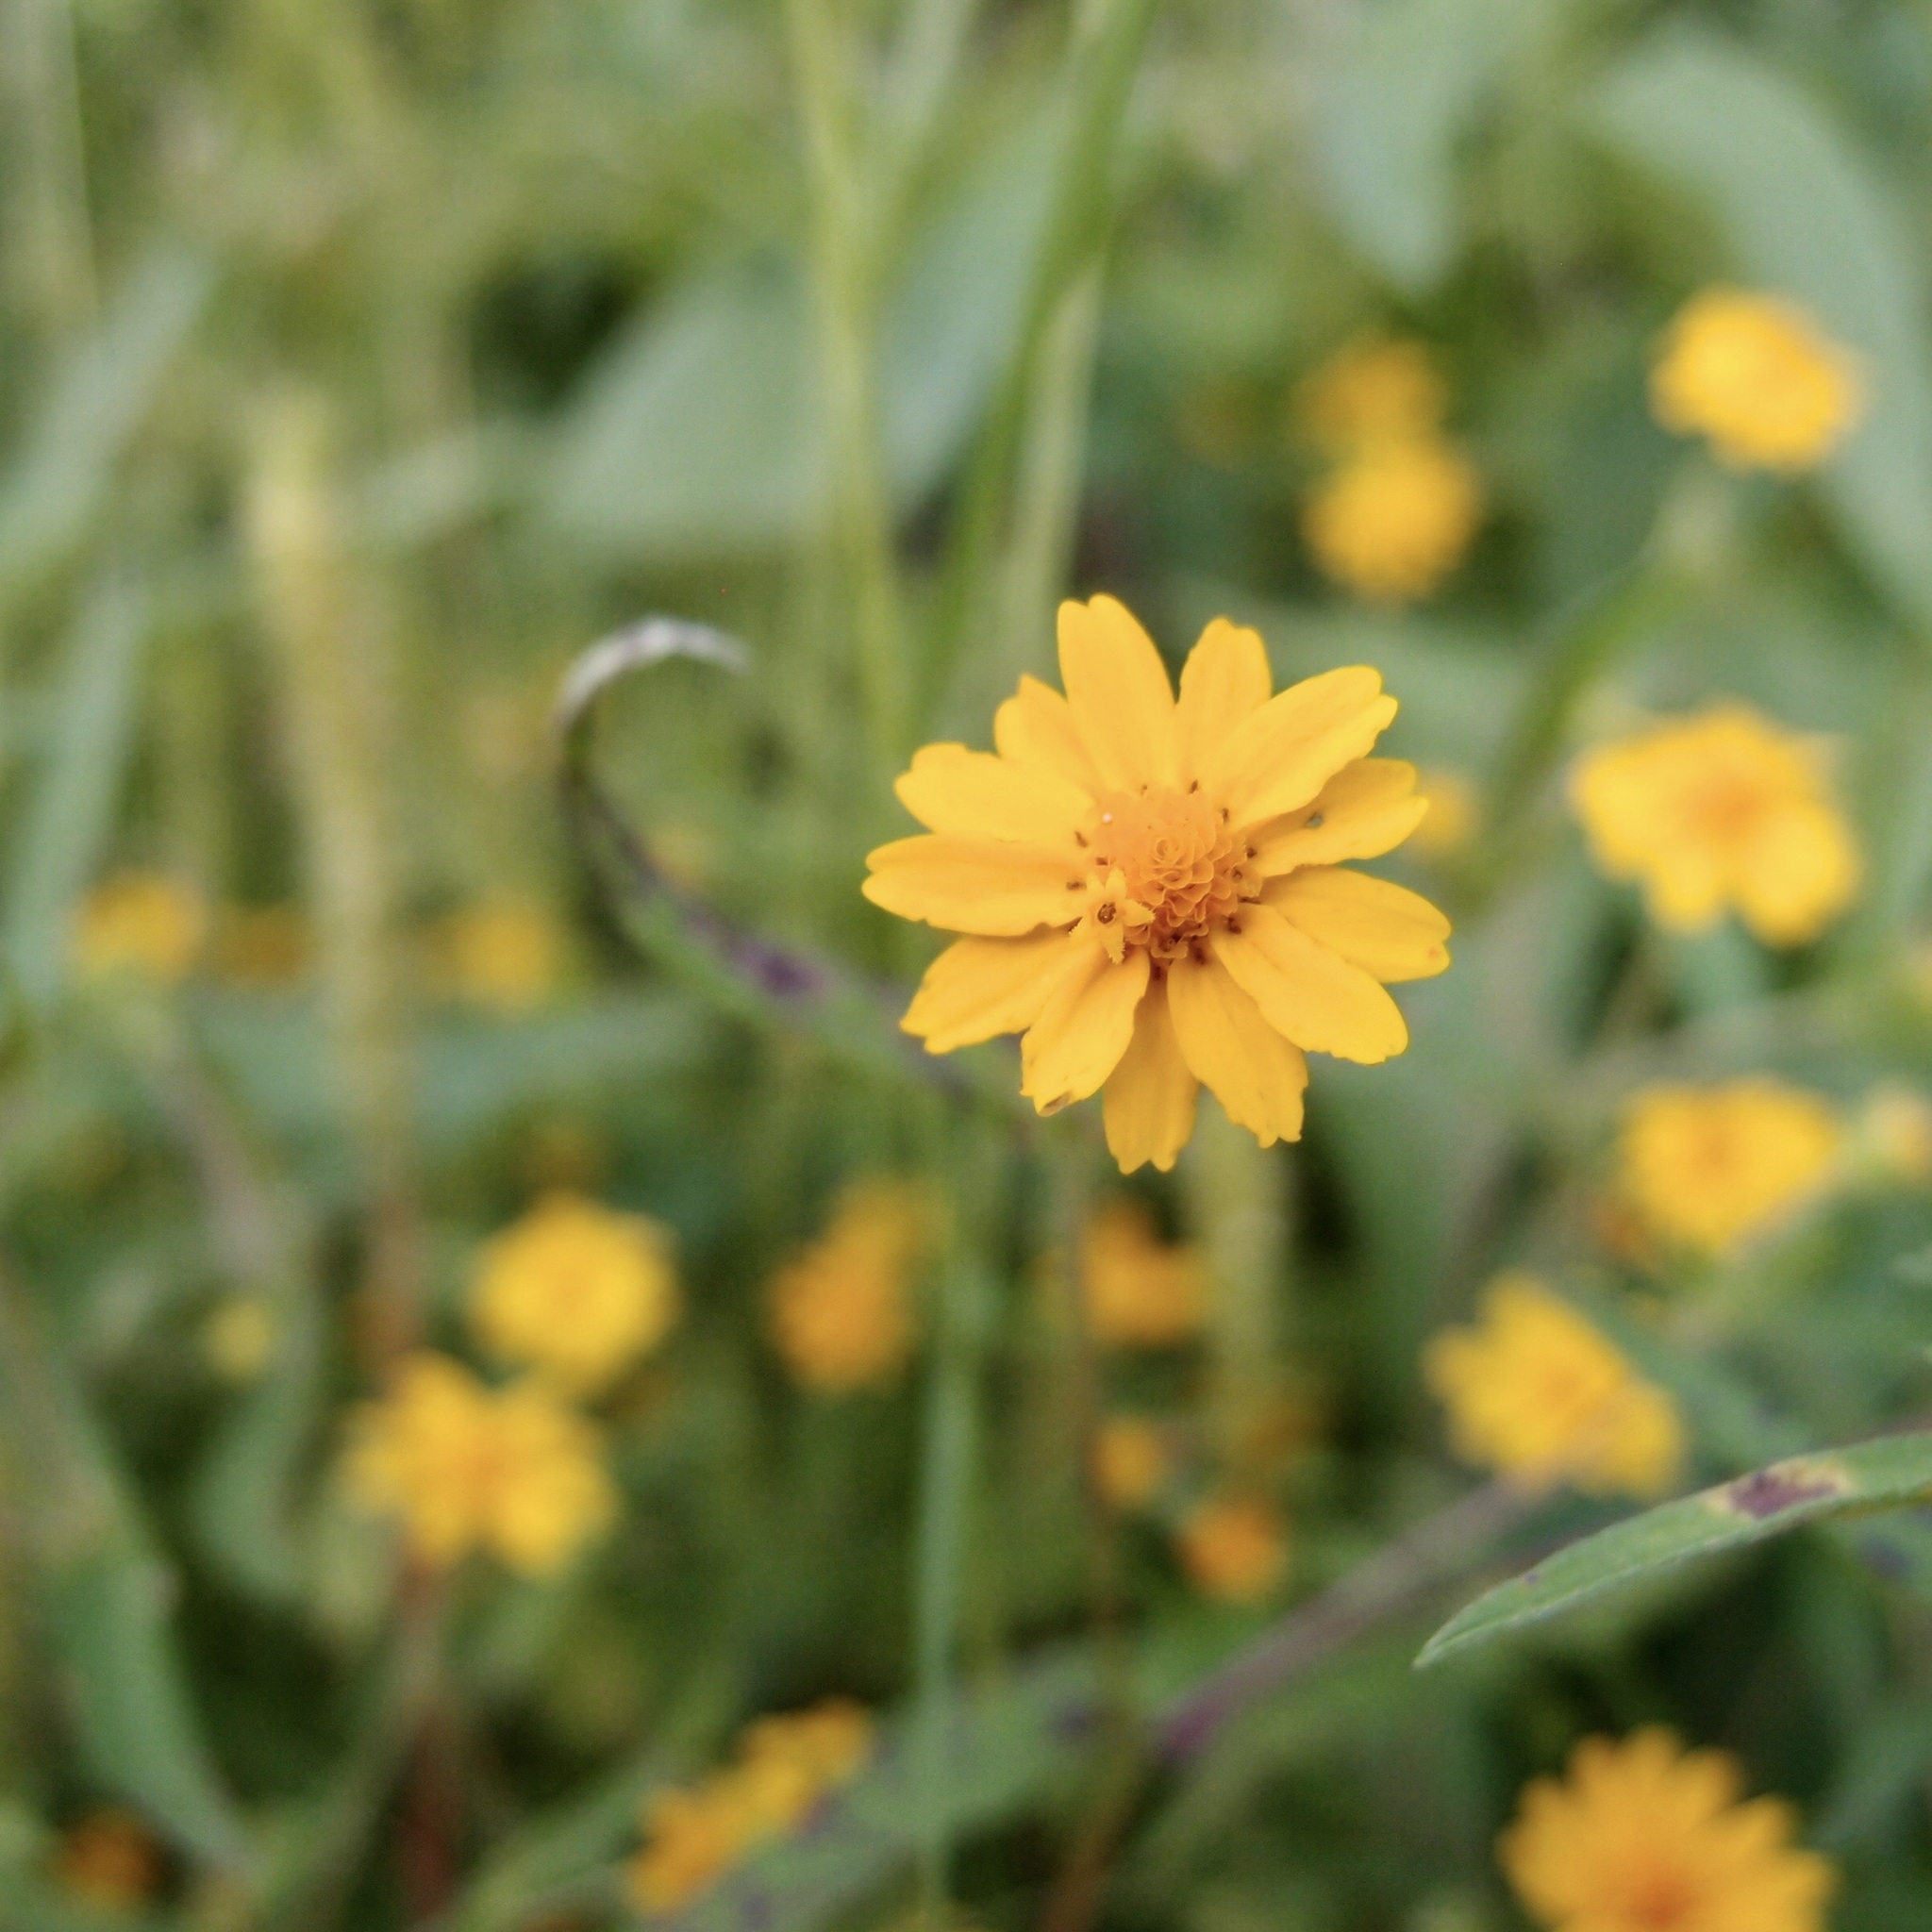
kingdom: Plantae
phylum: Tracheophyta
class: Magnoliopsida
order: Asterales
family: Asteraceae
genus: Melampodium
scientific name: Melampodium appendiculatum
